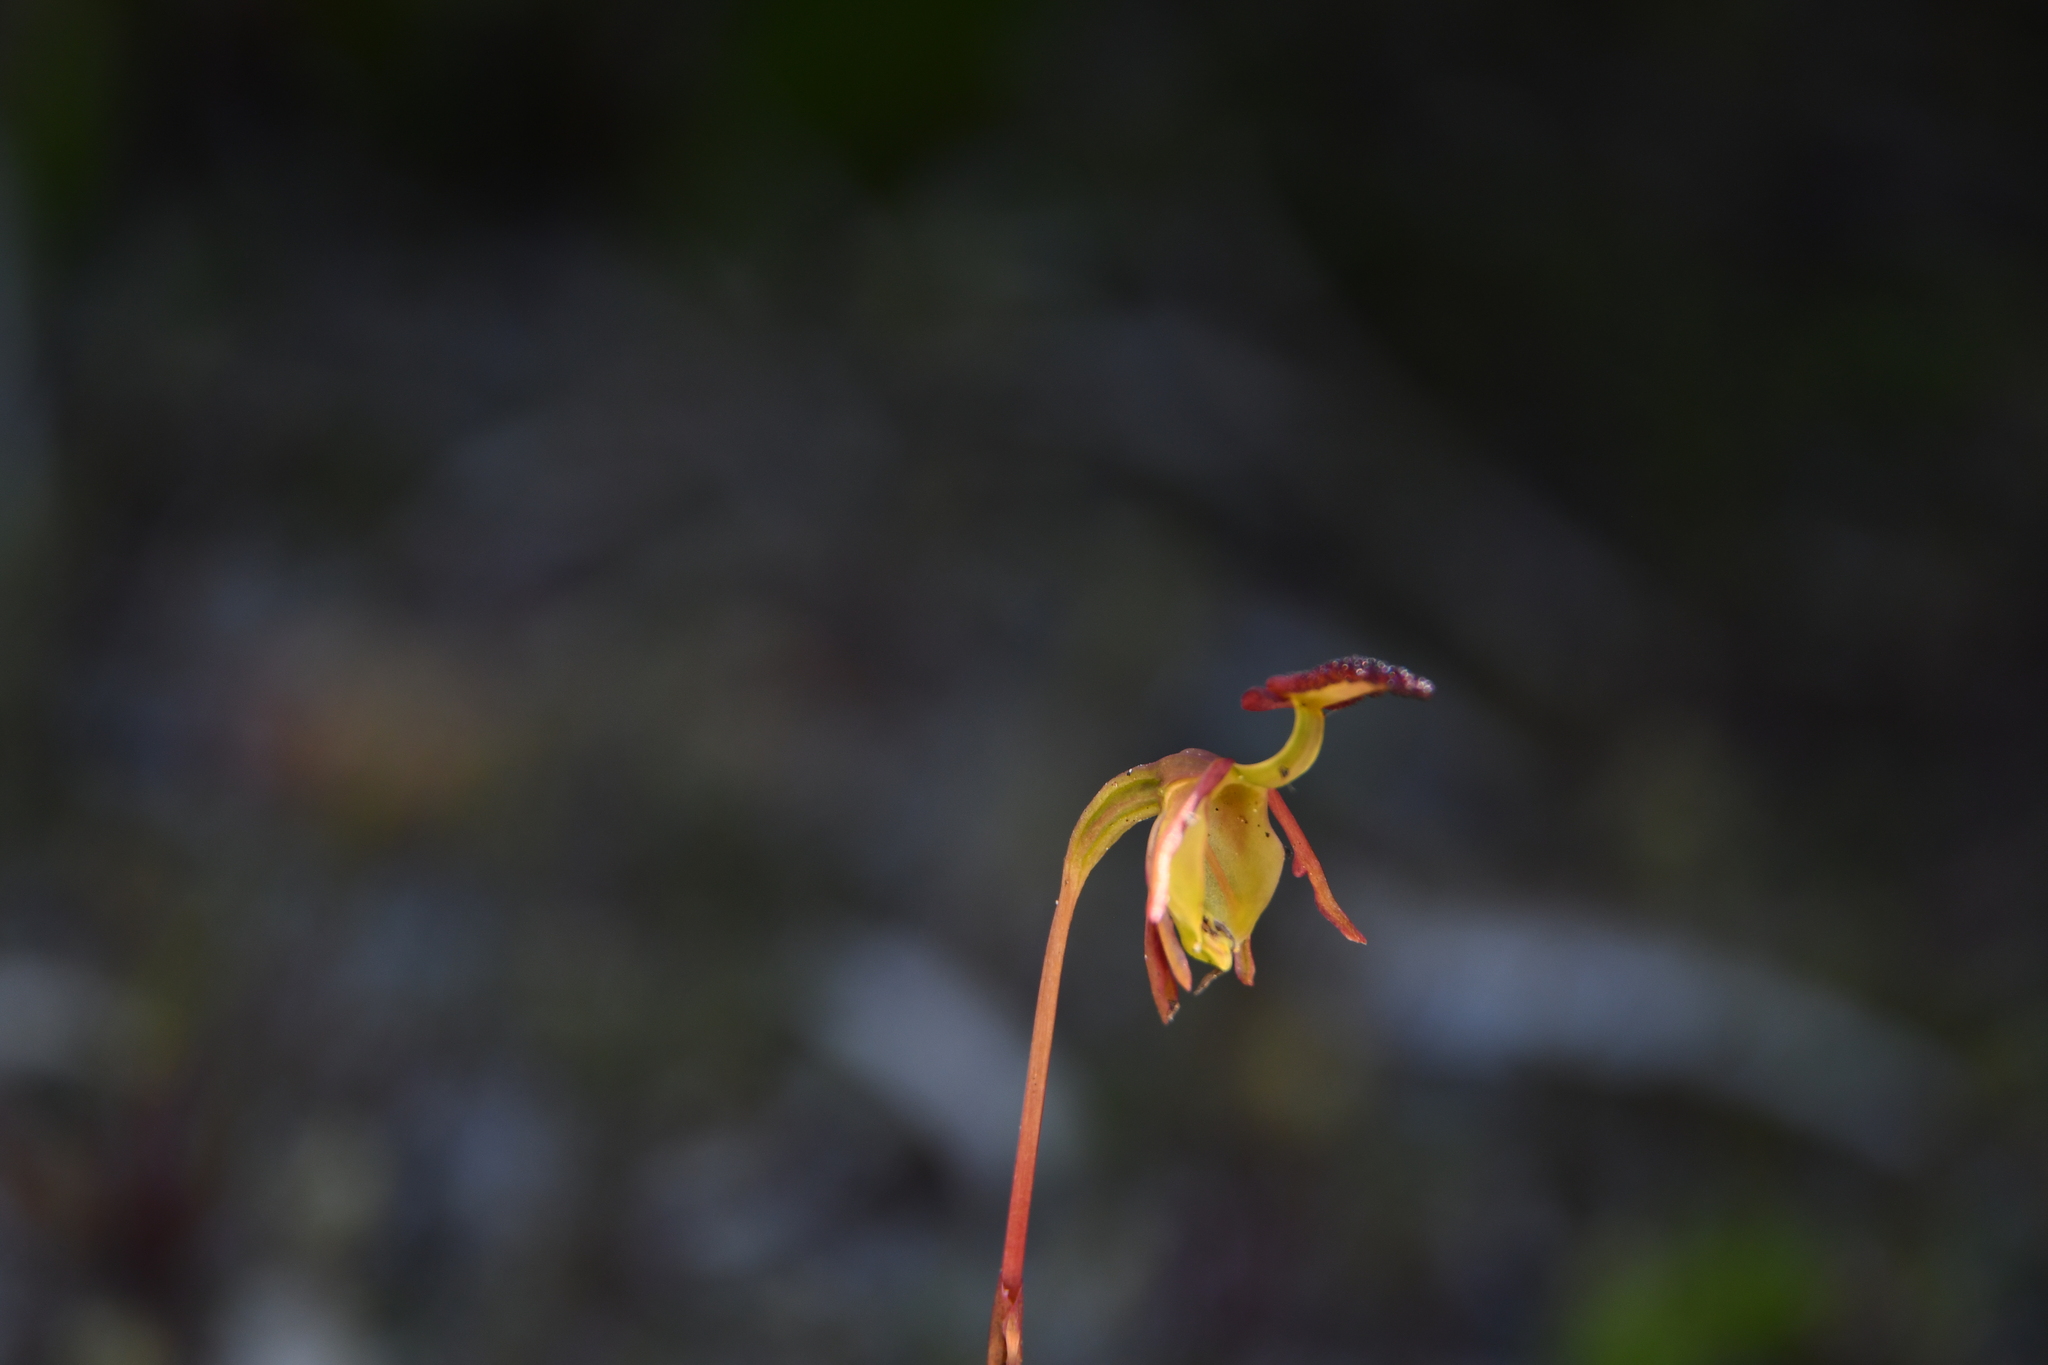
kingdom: Plantae
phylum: Tracheophyta
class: Liliopsida
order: Asparagales
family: Orchidaceae
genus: Caleana
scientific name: Caleana nigrita
